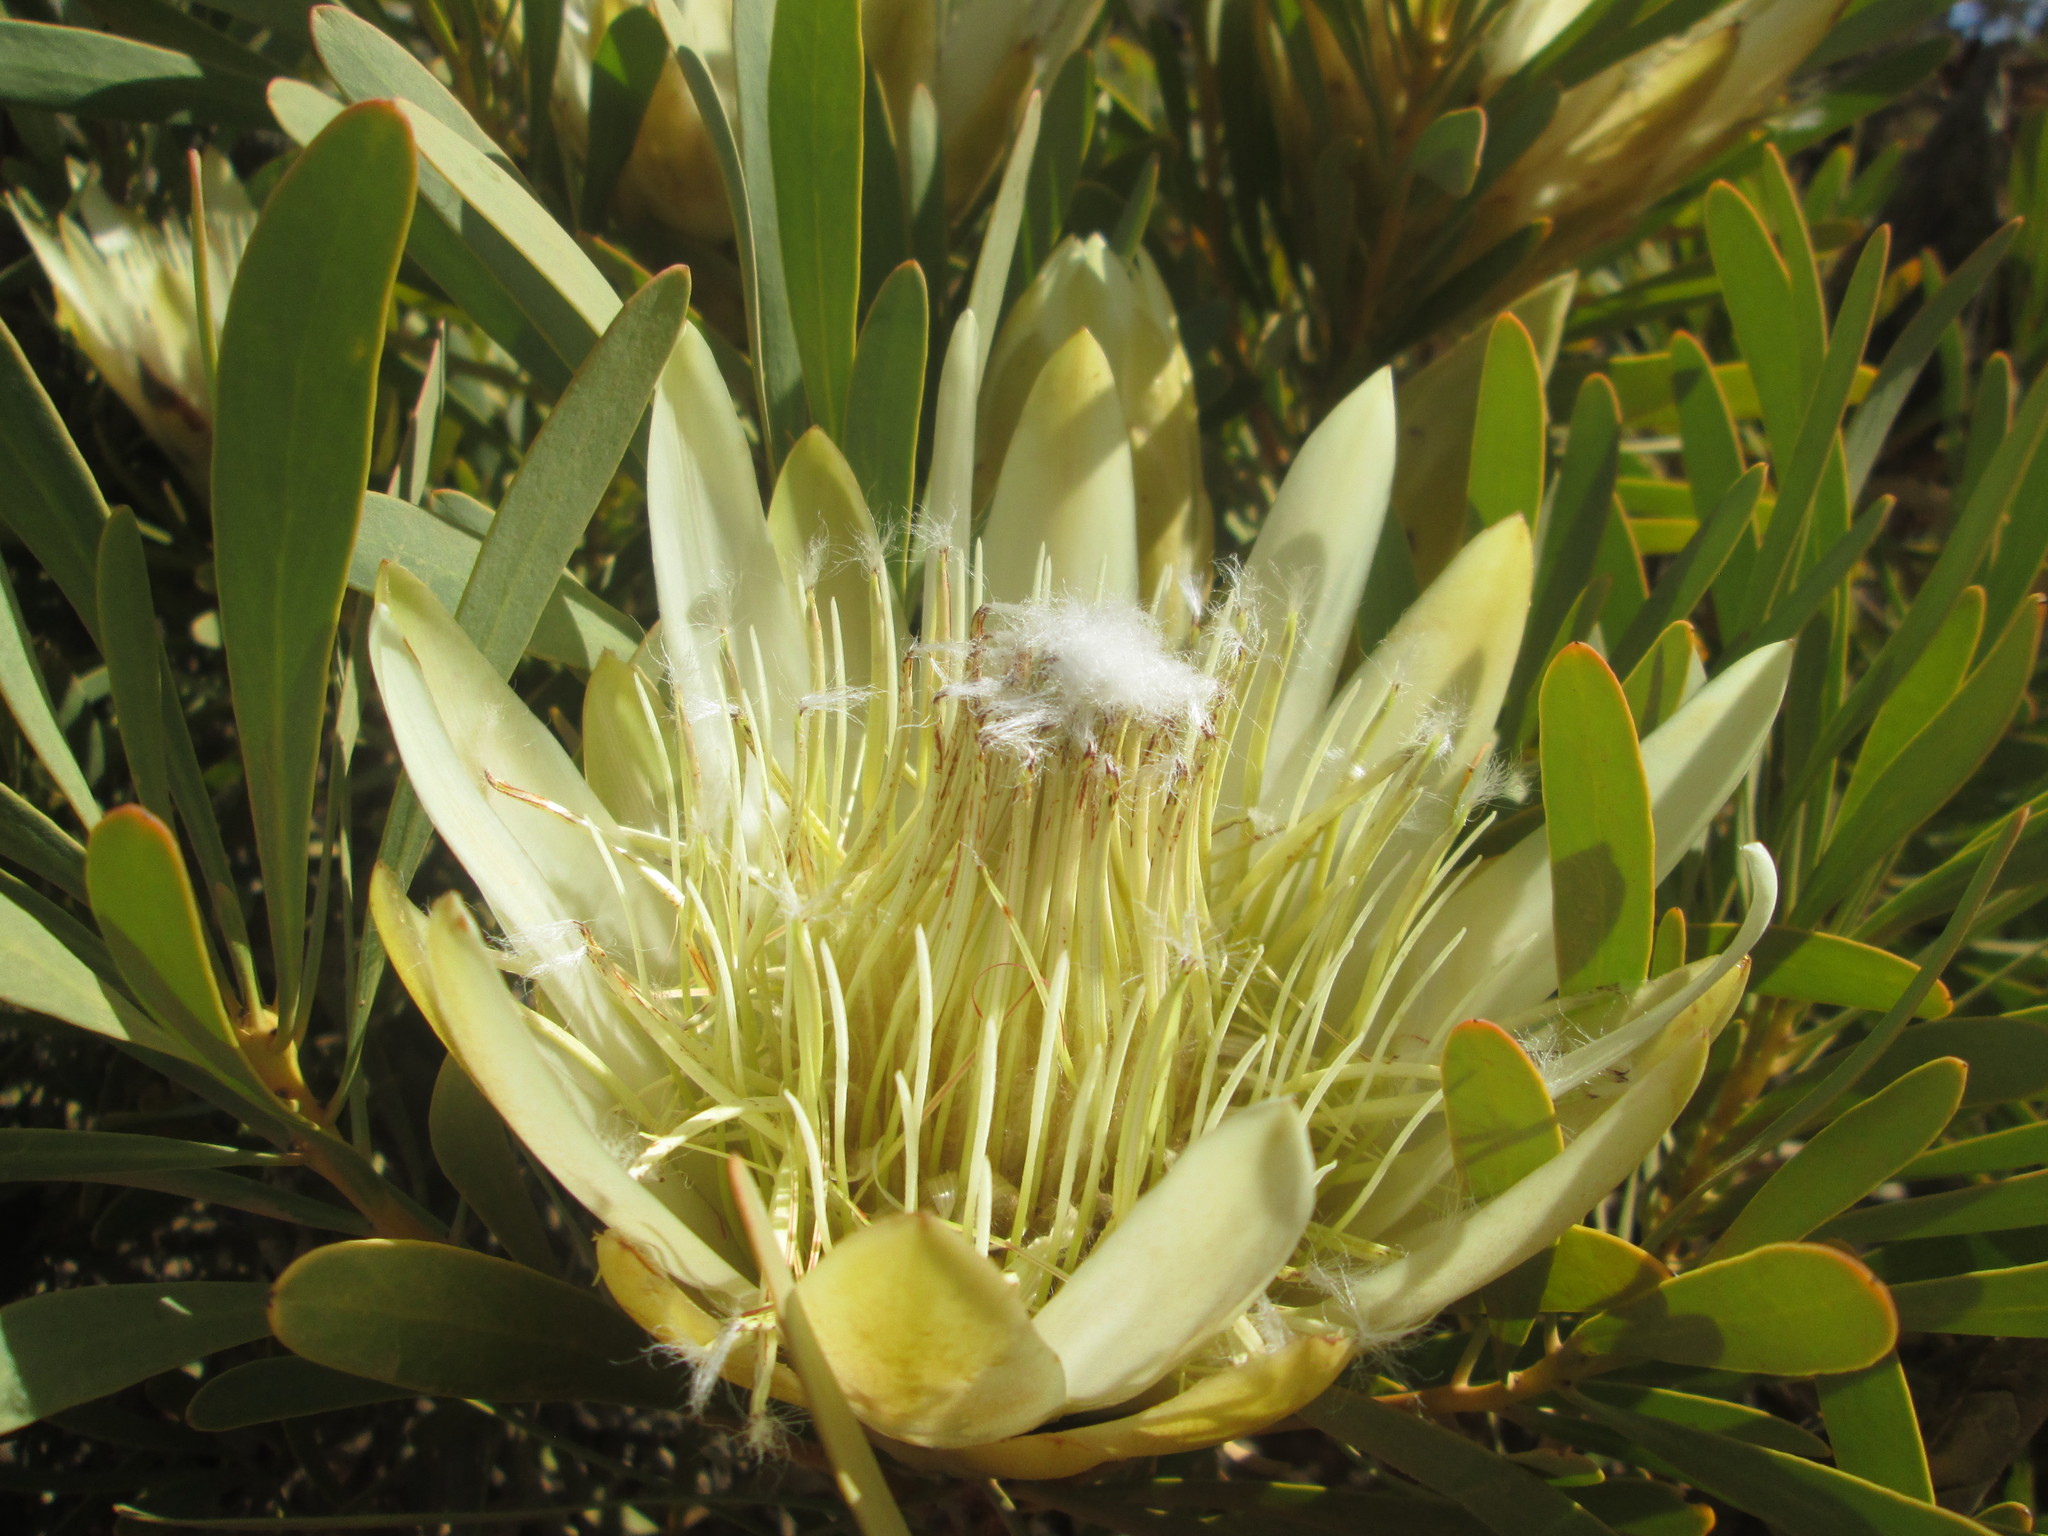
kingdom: Plantae
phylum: Tracheophyta
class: Magnoliopsida
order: Proteales
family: Proteaceae
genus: Protea
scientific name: Protea repens
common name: Sugarbush
